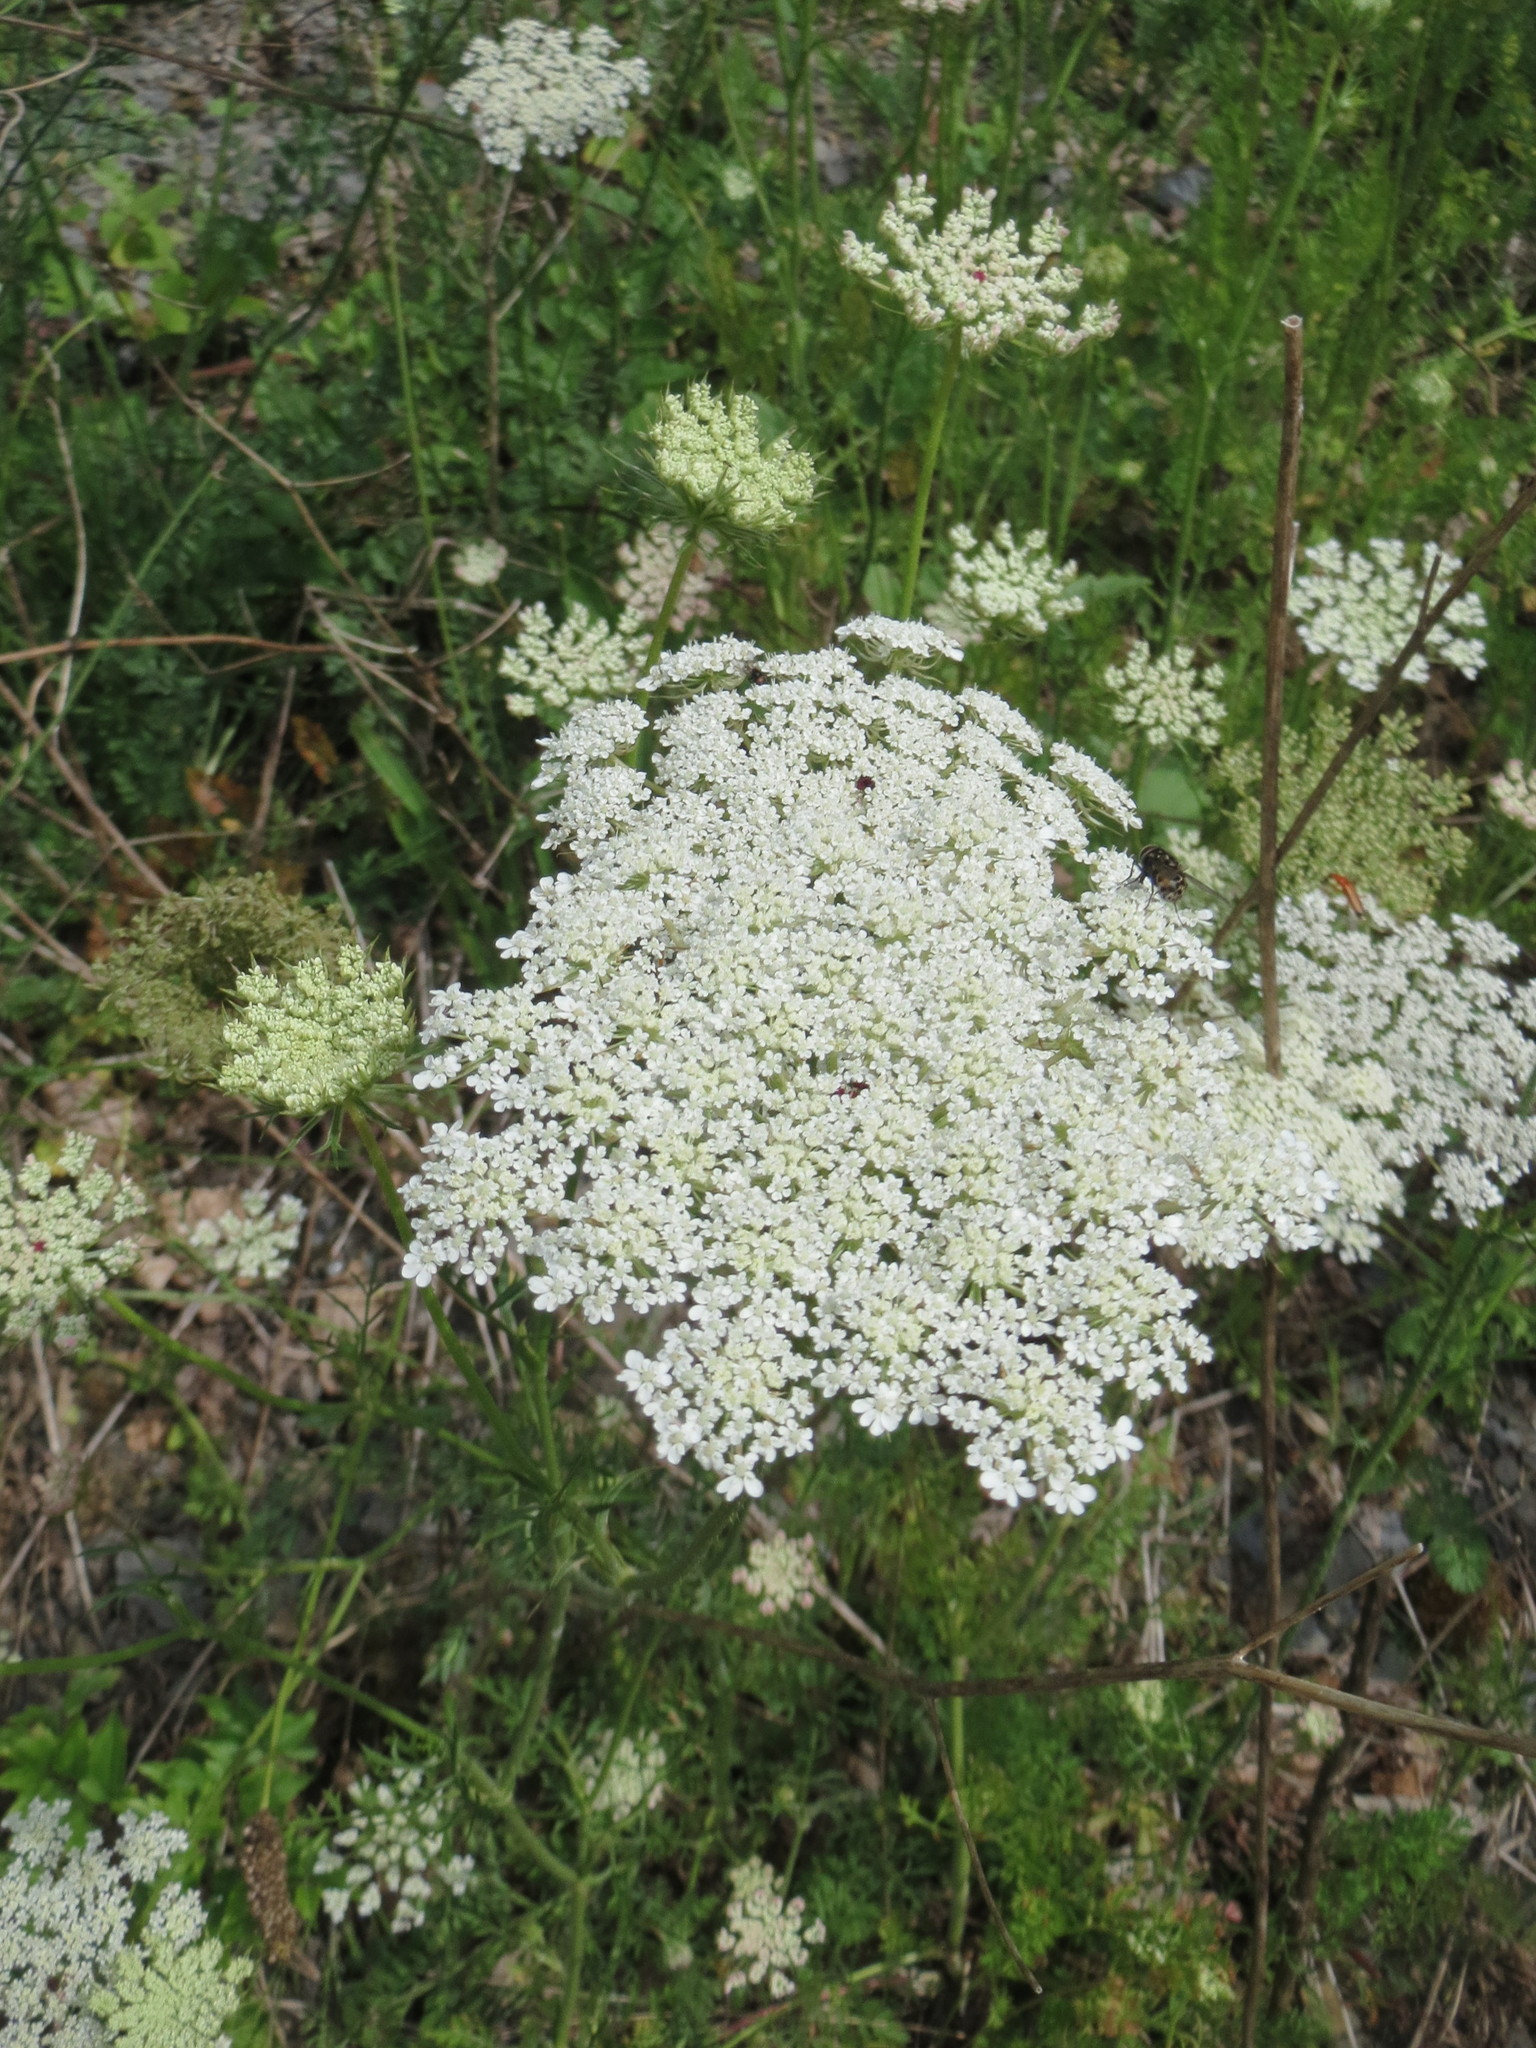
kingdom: Plantae
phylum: Tracheophyta
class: Magnoliopsida
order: Apiales
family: Apiaceae
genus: Daucus
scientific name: Daucus carota
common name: Wild carrot
